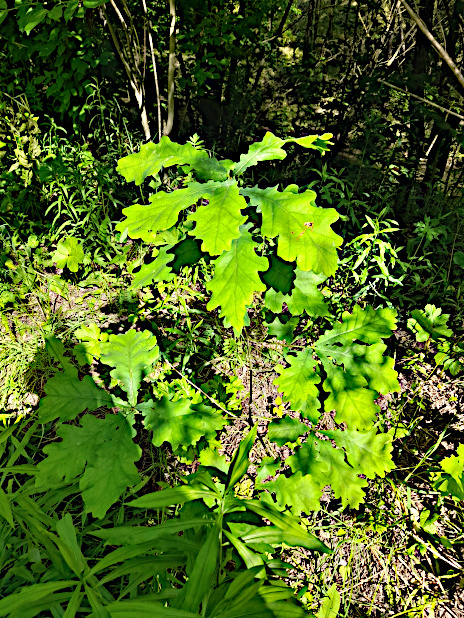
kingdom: Plantae
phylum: Tracheophyta
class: Magnoliopsida
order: Fagales
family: Fagaceae
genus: Quercus
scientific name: Quercus robur
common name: Pedunculate oak
